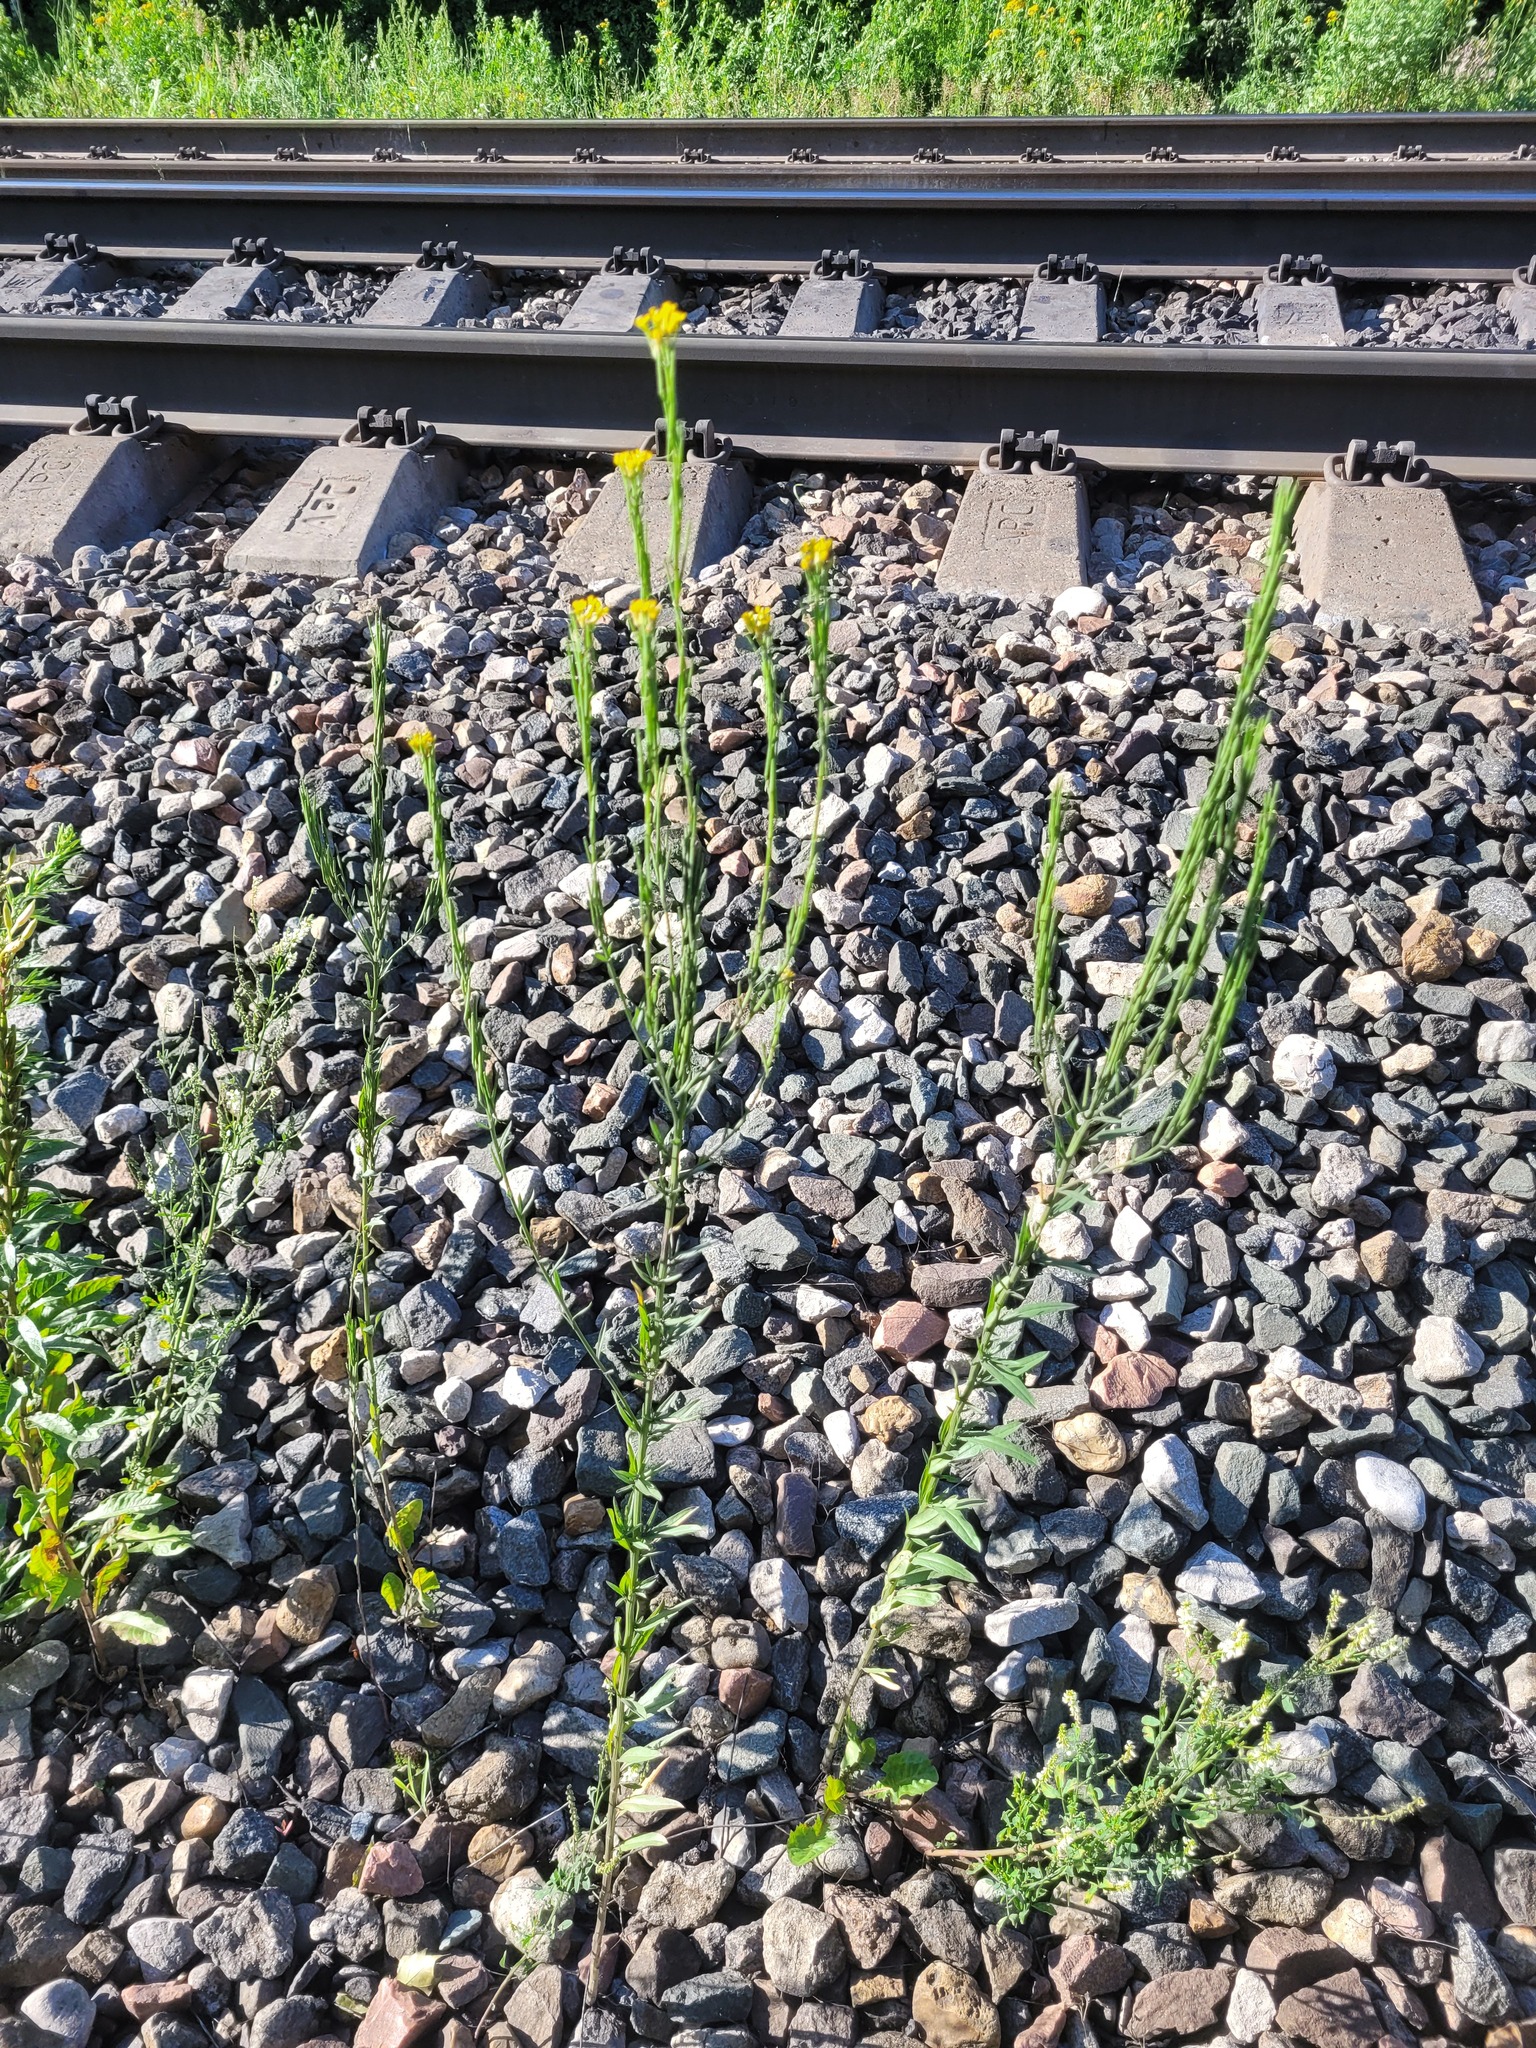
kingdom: Plantae
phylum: Tracheophyta
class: Magnoliopsida
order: Brassicales
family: Brassicaceae
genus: Erysimum
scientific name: Erysimum hieraciifolium
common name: European wallflower
